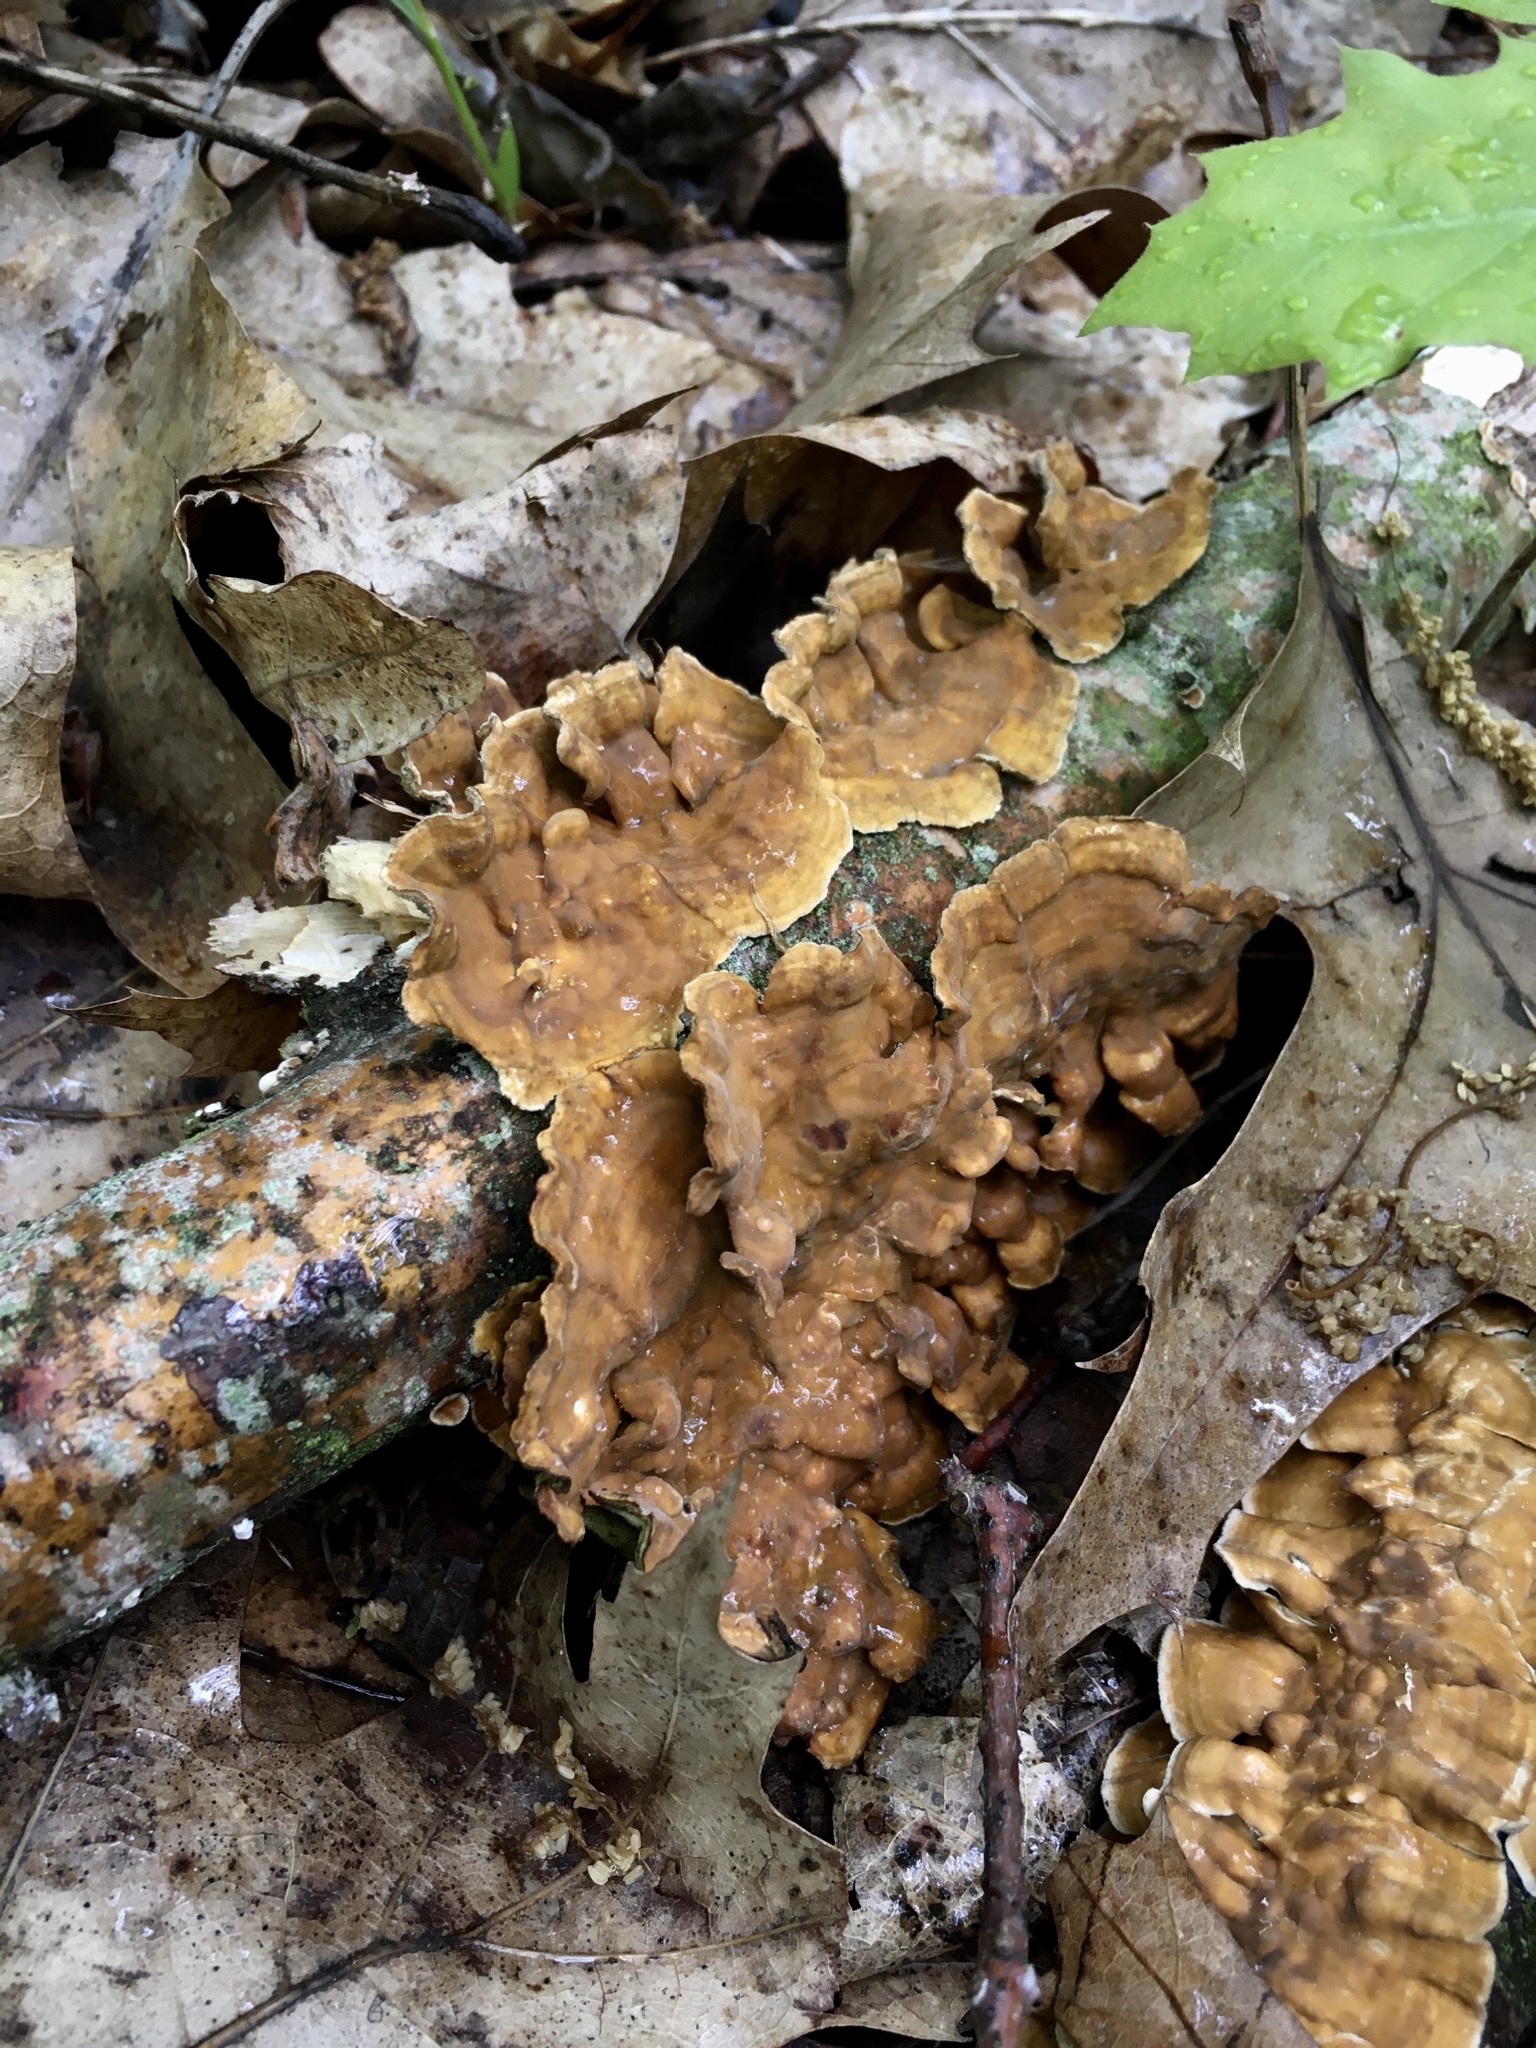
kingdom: Fungi
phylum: Basidiomycota
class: Agaricomycetes
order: Russulales
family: Stereaceae
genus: Stereum
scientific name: Stereum hirsutum
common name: Hairy curtain crust
